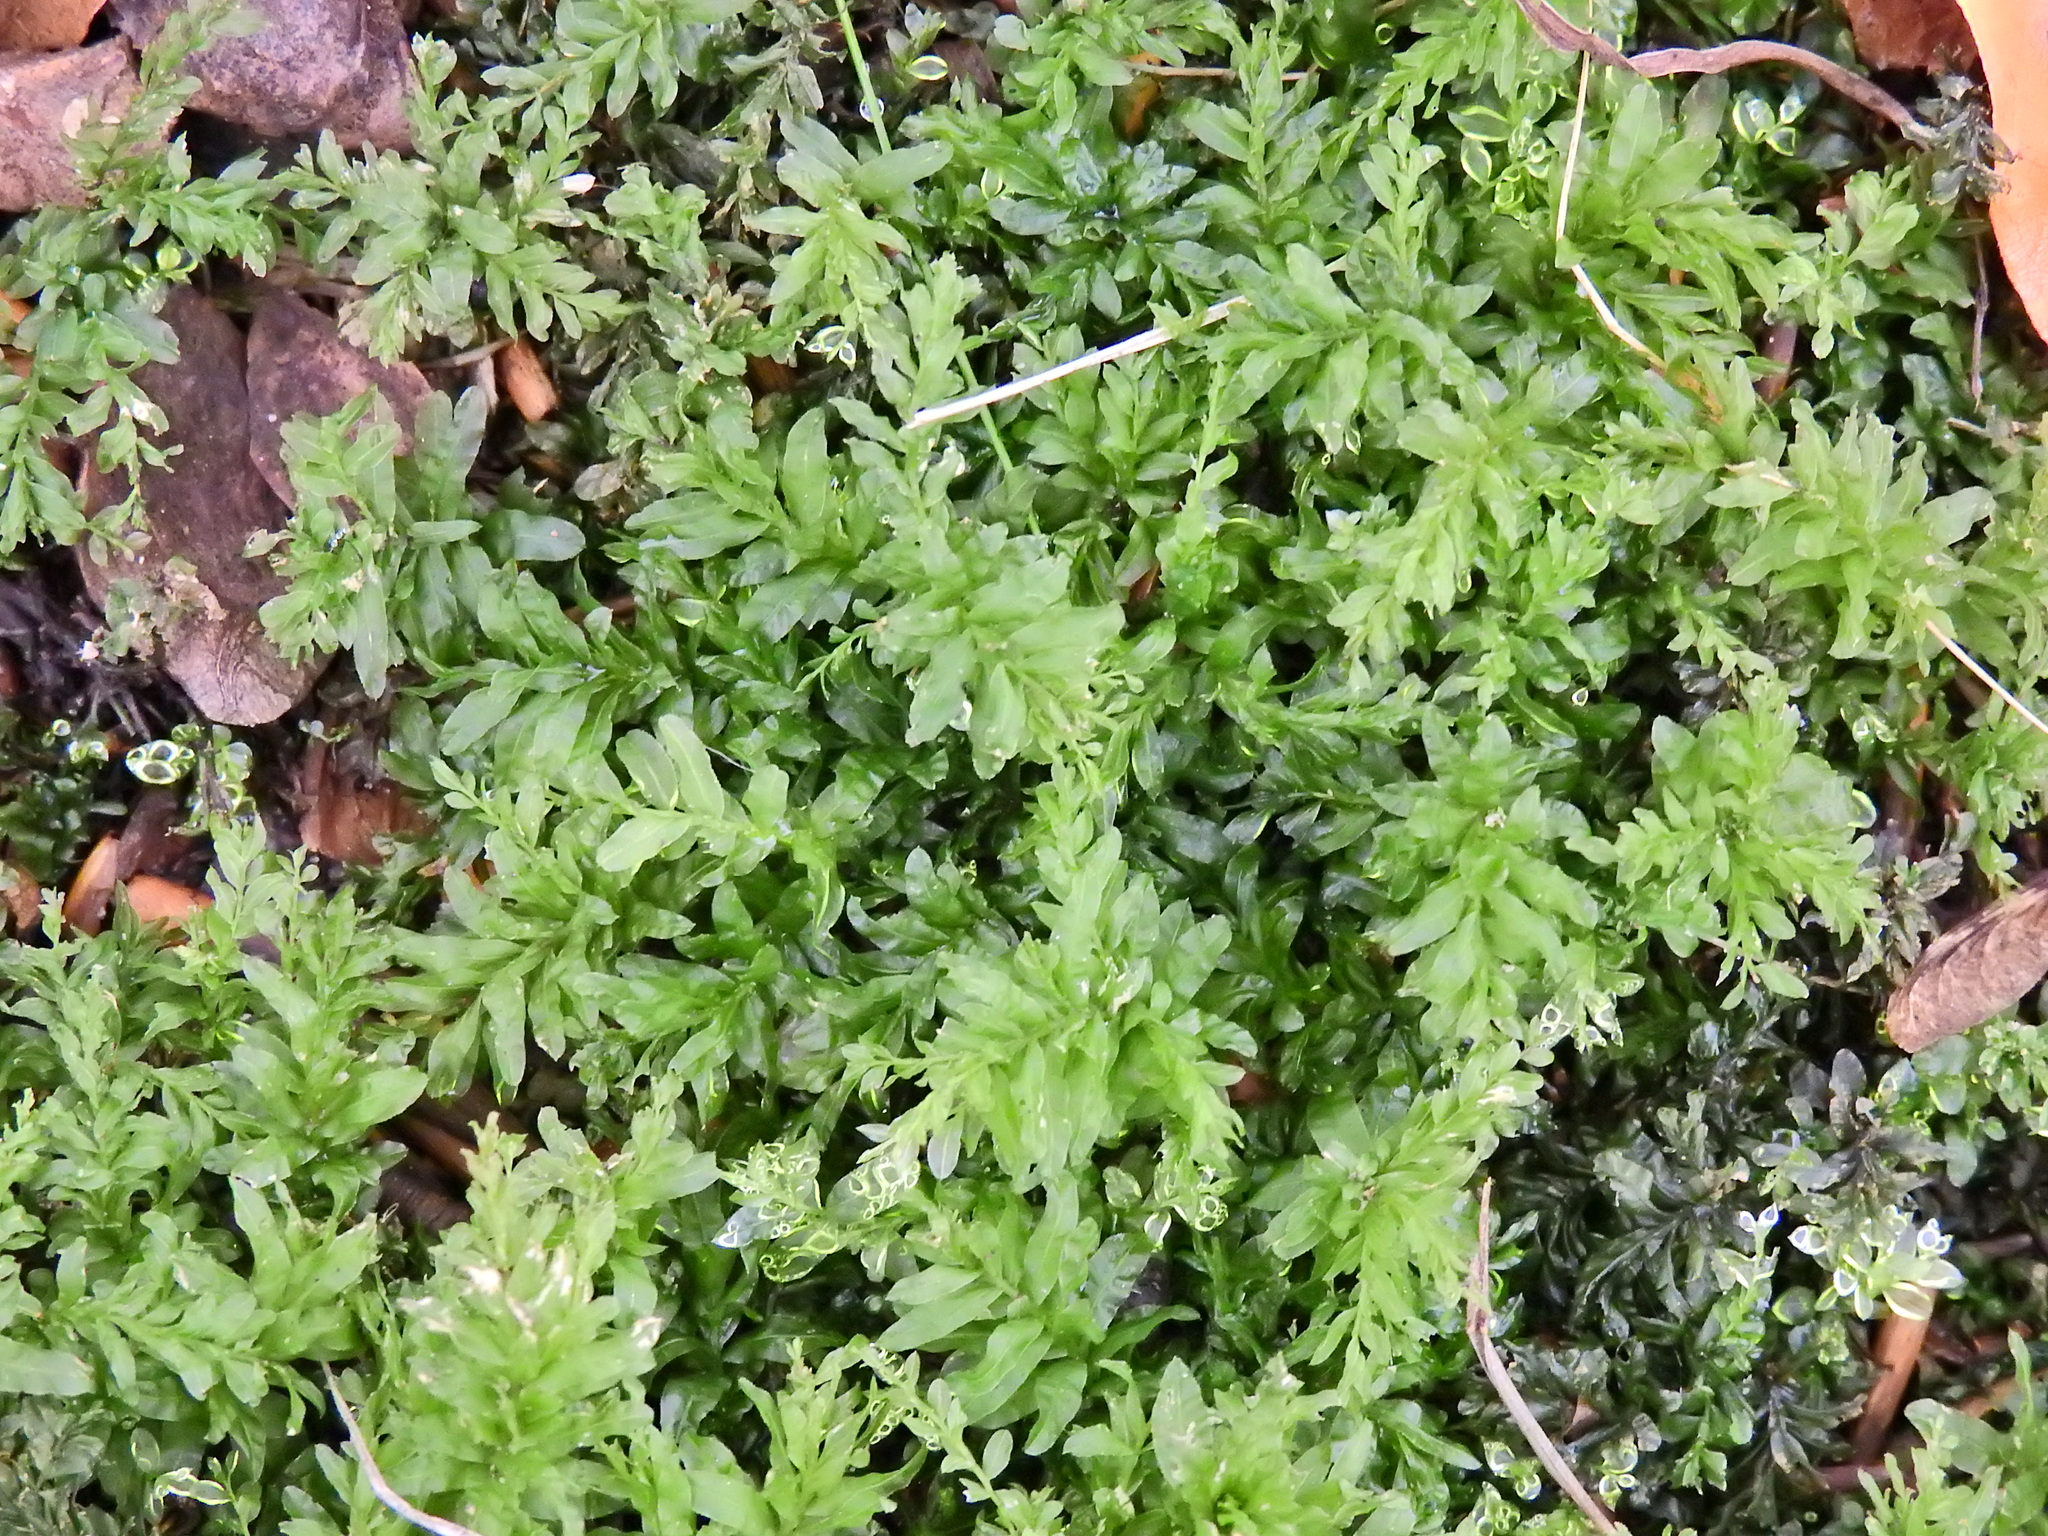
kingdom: Plantae
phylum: Bryophyta
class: Bryopsida
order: Bryales
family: Mniaceae
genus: Plagiomnium
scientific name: Plagiomnium undulatum
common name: Hart's-tongue thyme-moss
